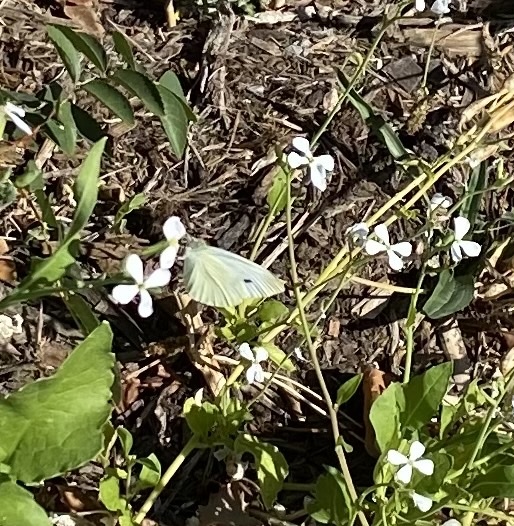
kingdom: Animalia
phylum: Arthropoda
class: Insecta
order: Lepidoptera
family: Pieridae
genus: Pieris
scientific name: Pieris rapae
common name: Small white
